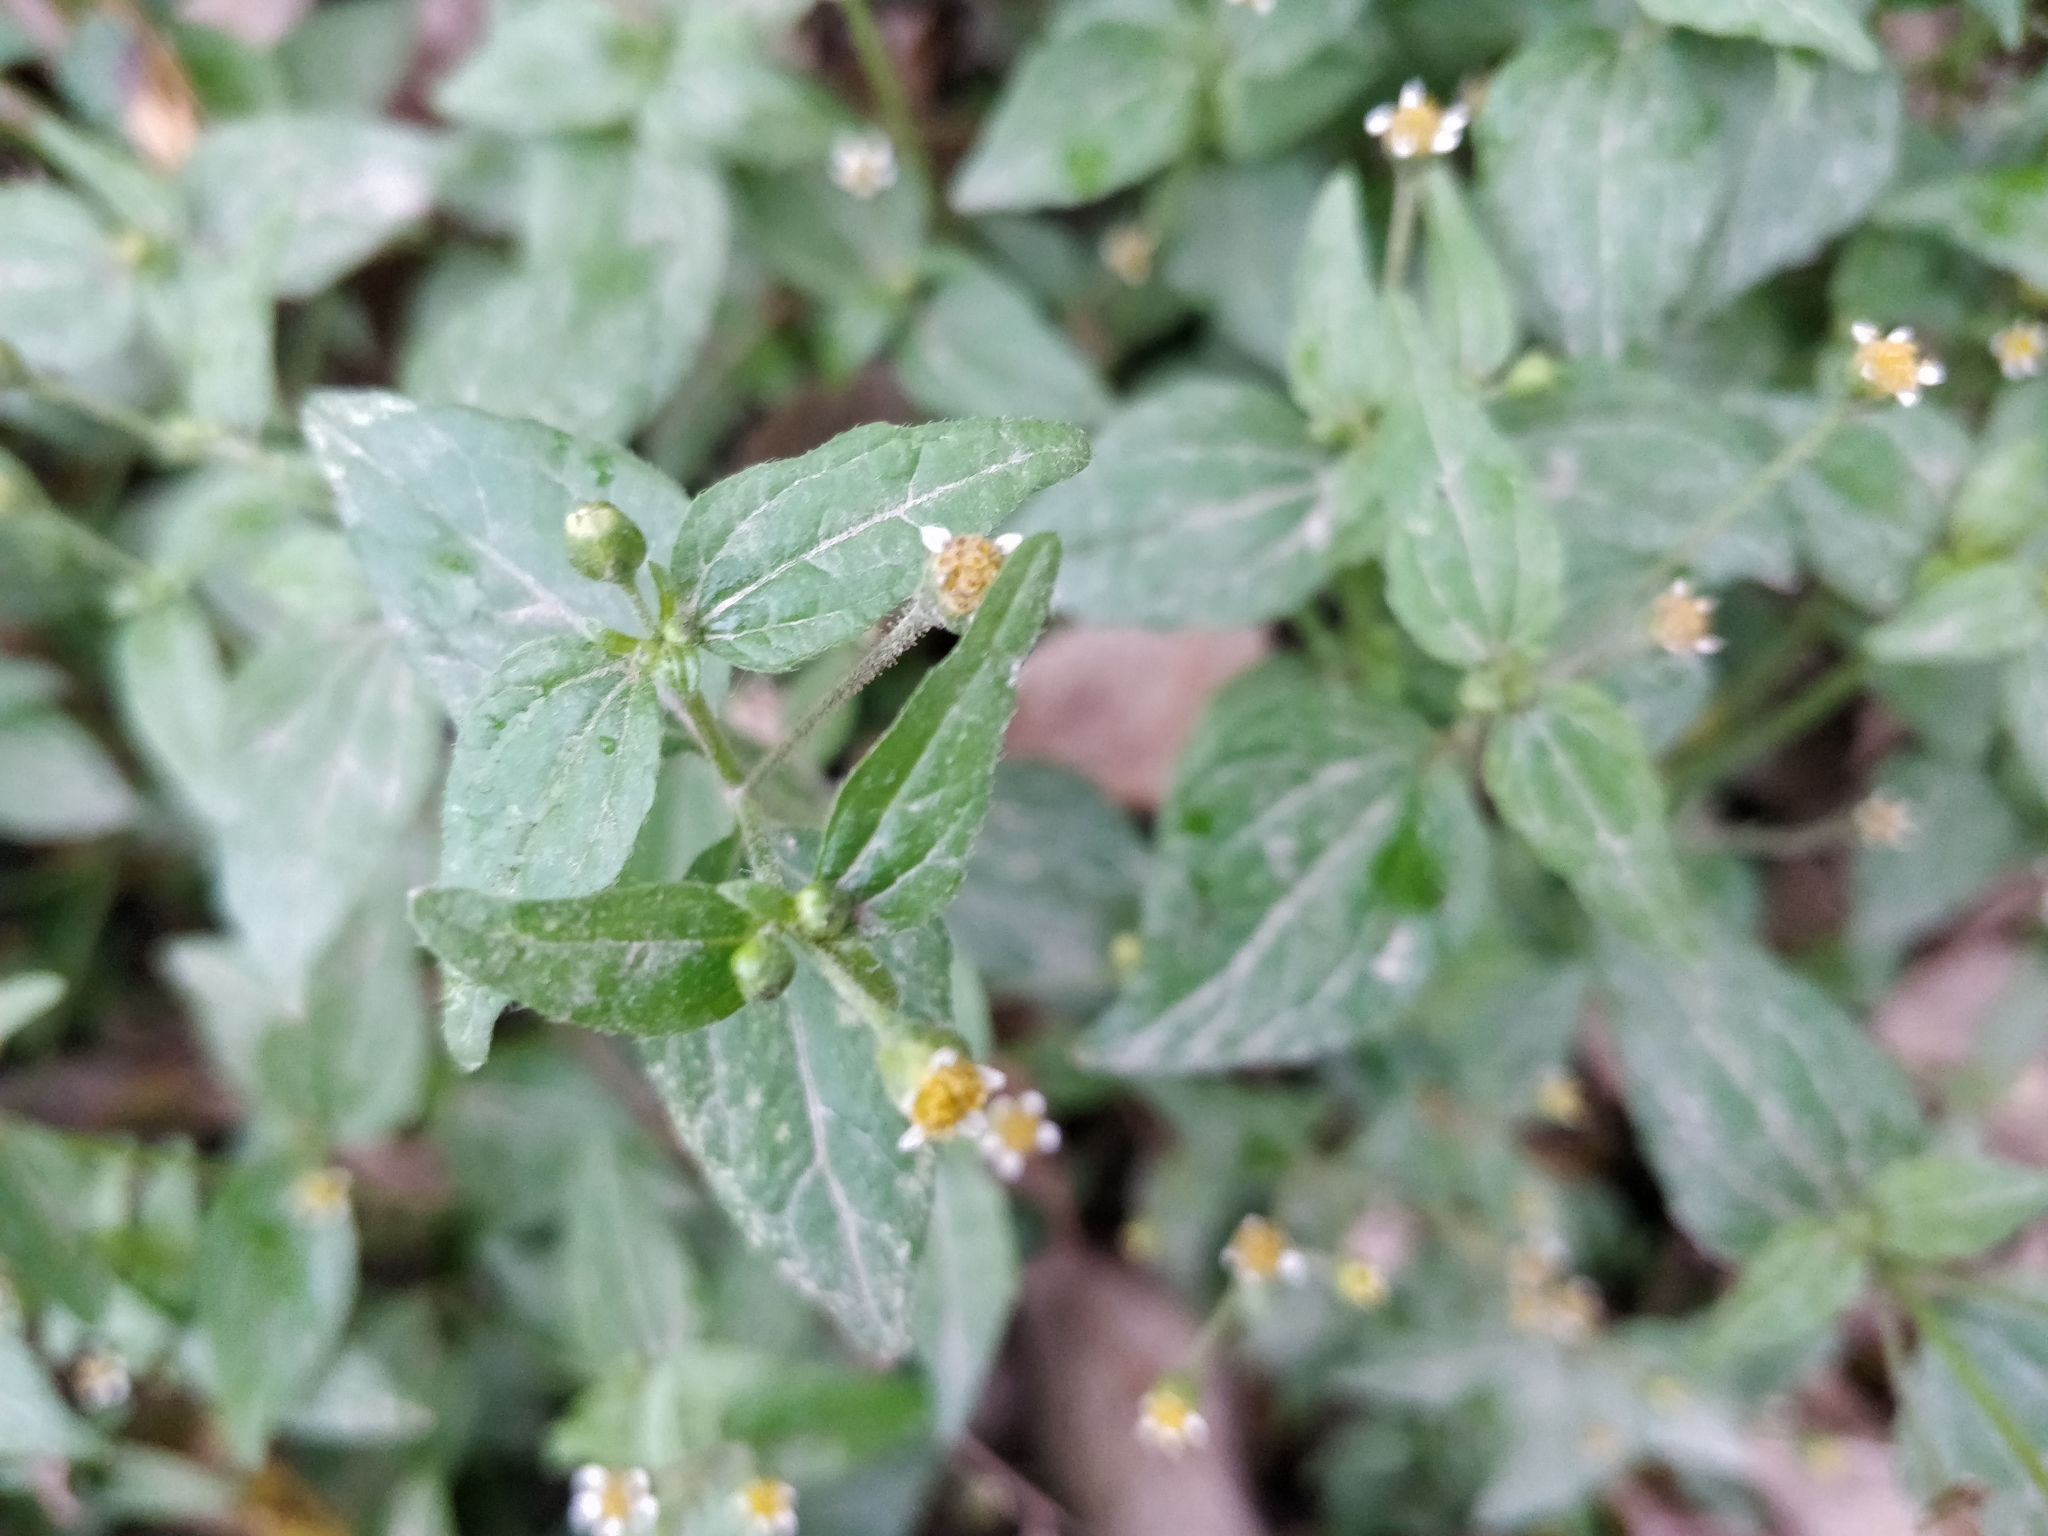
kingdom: Plantae
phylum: Tracheophyta
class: Magnoliopsida
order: Asterales
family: Asteraceae
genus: Galinsoga
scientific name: Galinsoga parviflora
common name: Gallant soldier
